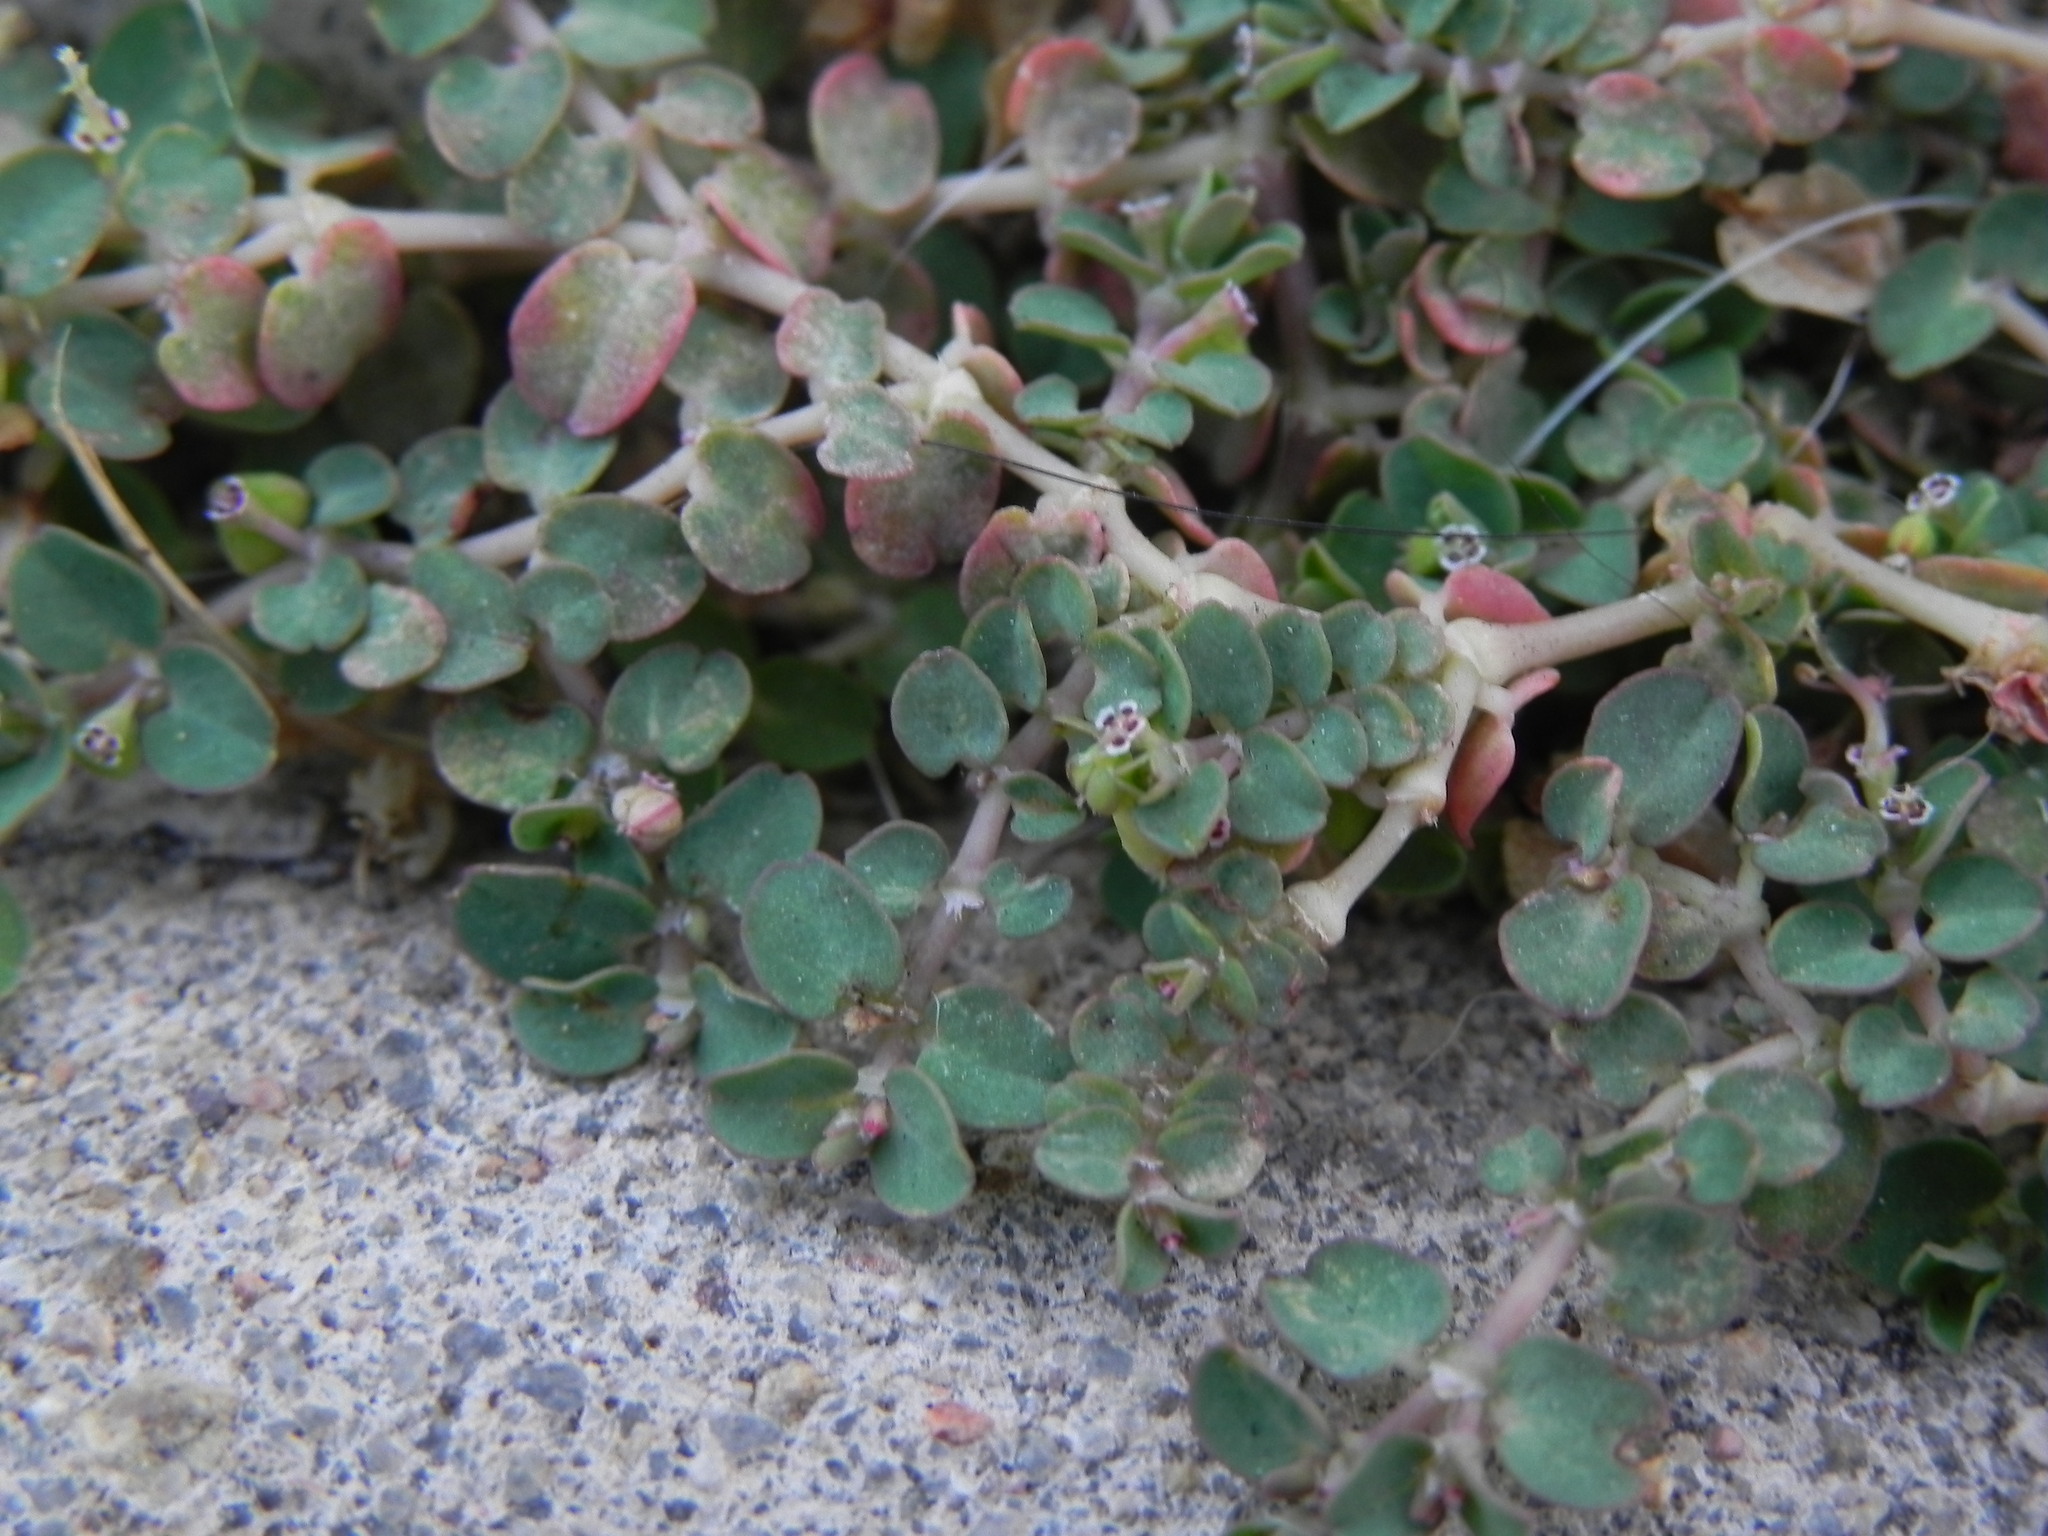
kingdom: Plantae
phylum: Tracheophyta
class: Magnoliopsida
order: Malpighiales
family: Euphorbiaceae
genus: Euphorbia
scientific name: Euphorbia serpens
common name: Matted sandmat
